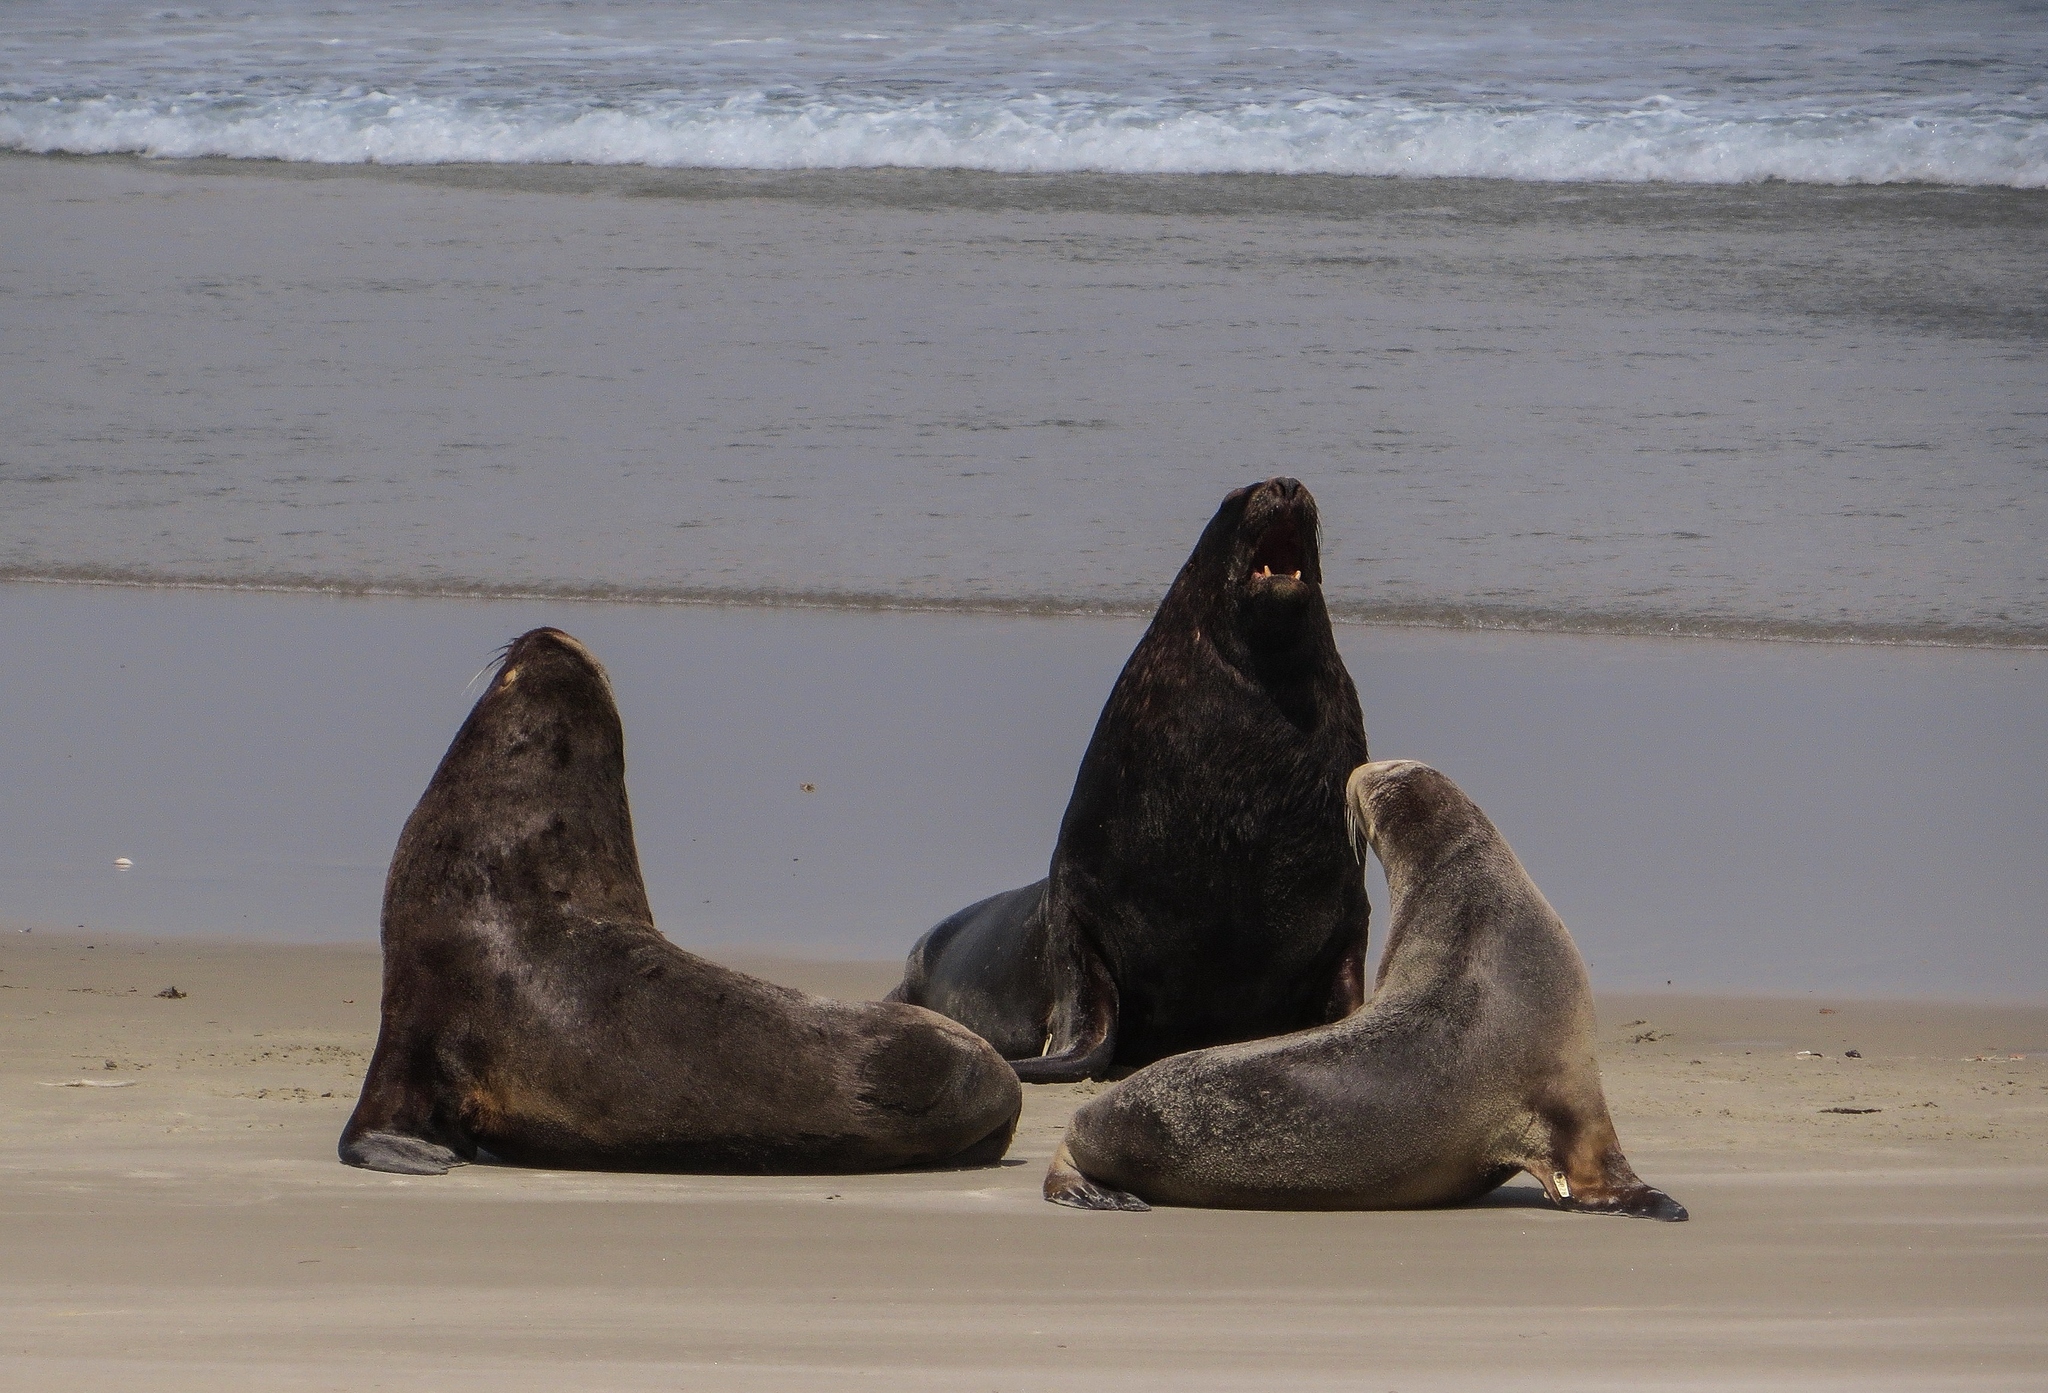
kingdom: Animalia
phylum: Chordata
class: Mammalia
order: Carnivora
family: Otariidae
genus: Phocarctos
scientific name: Phocarctos hookeri
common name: New zealand sea lion
